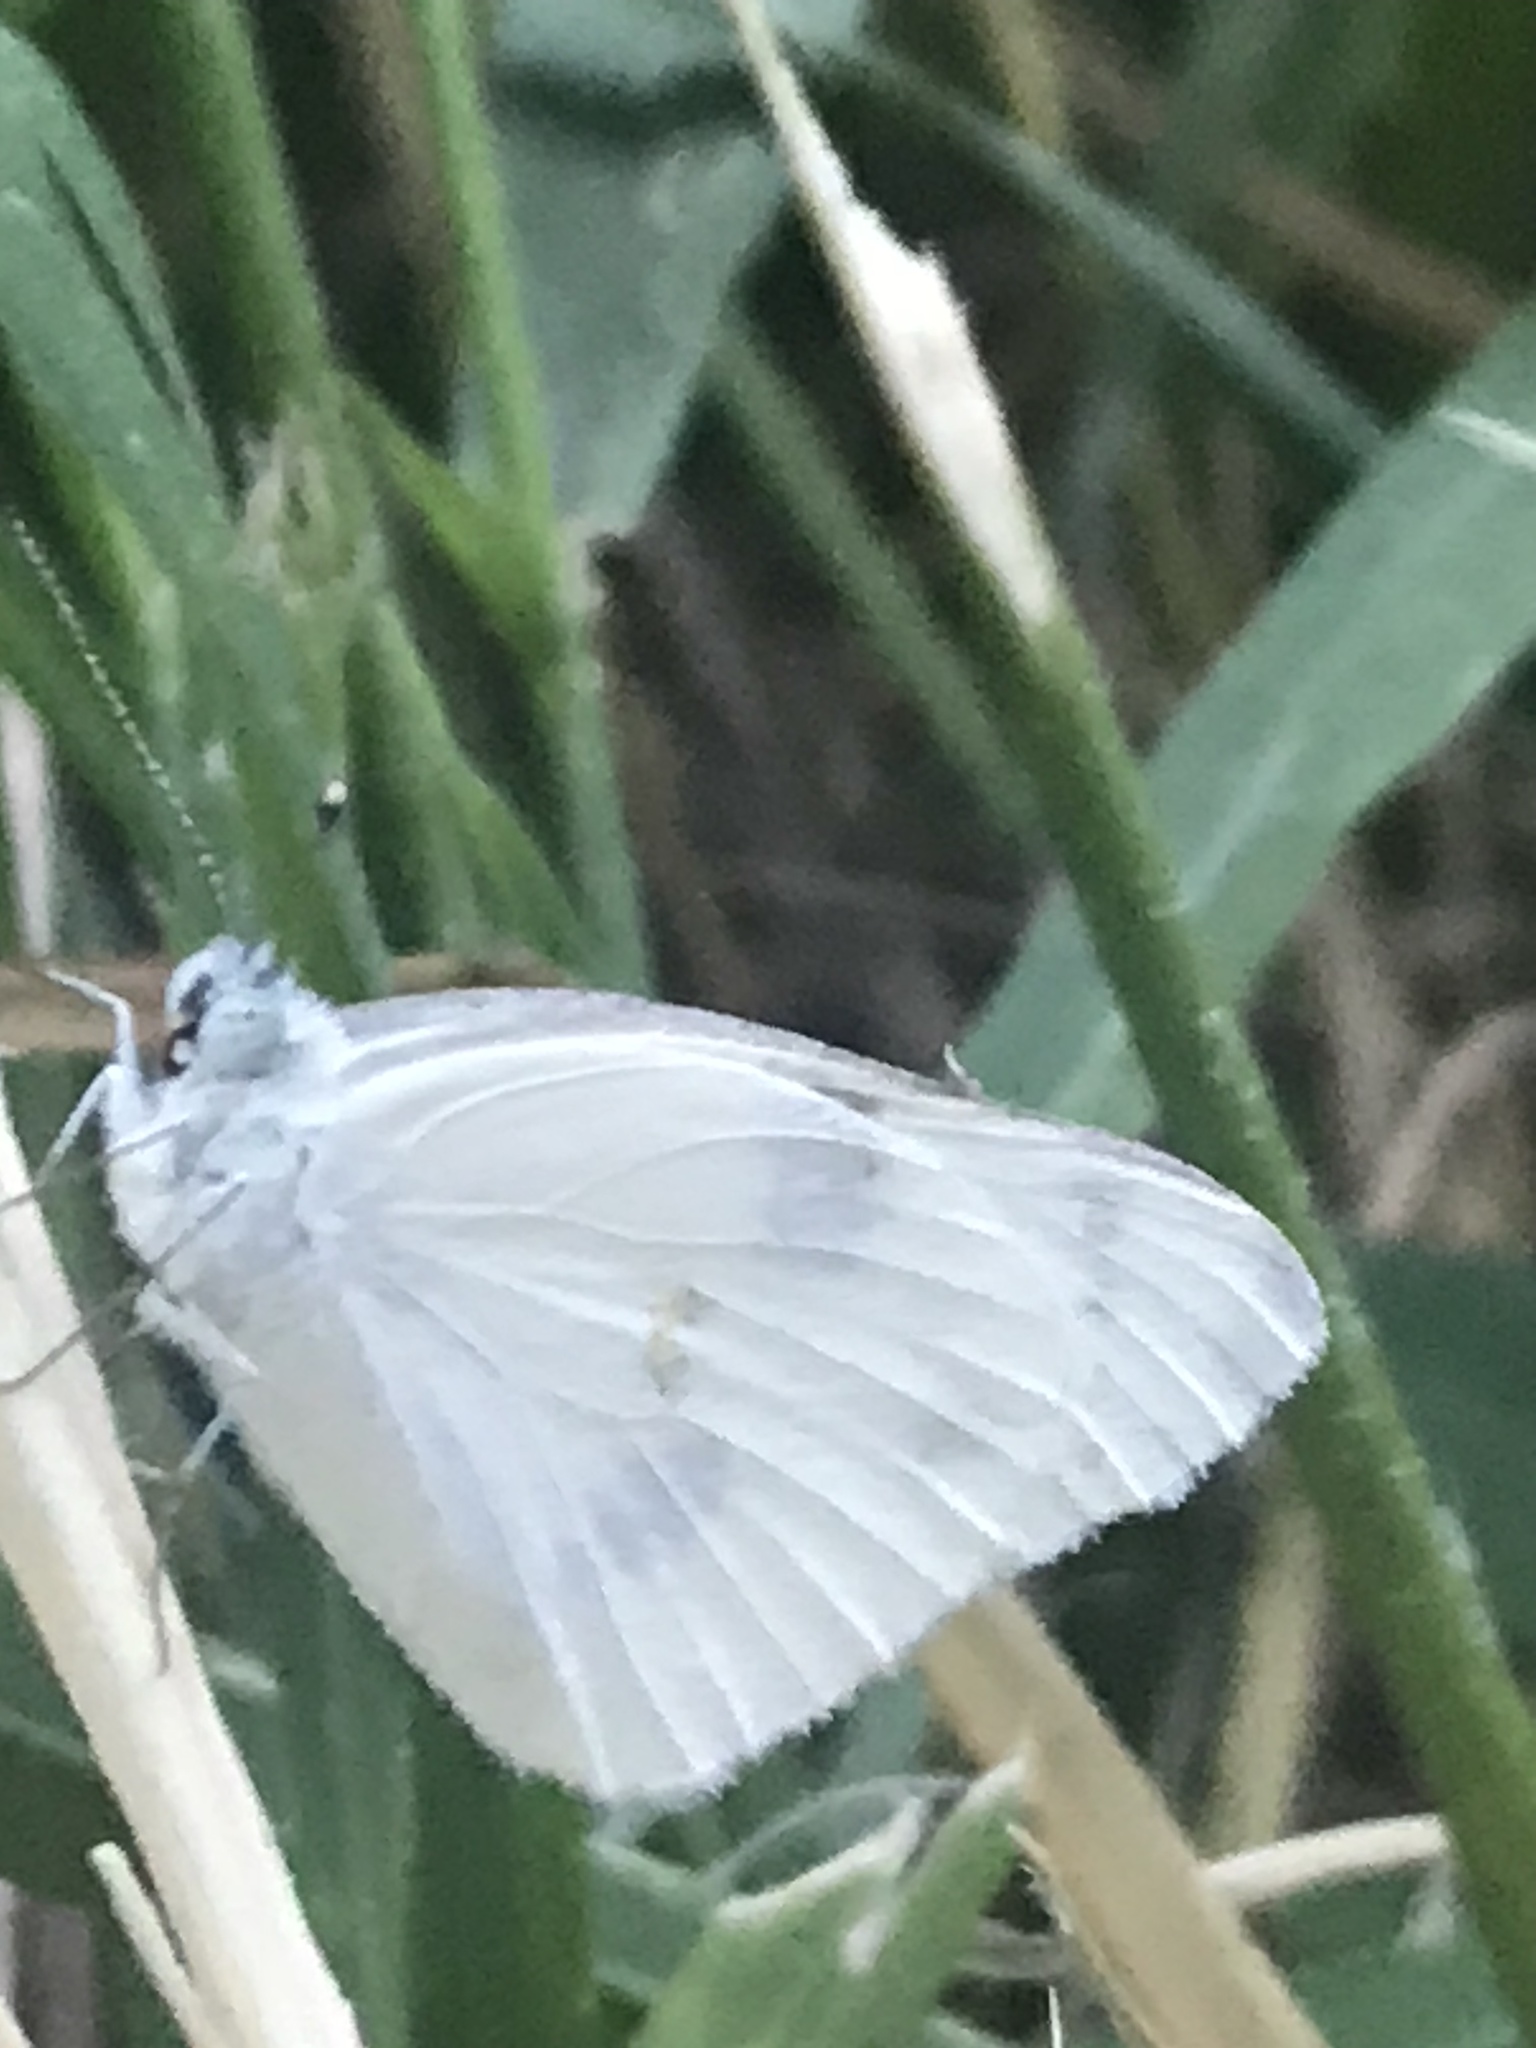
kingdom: Animalia
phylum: Arthropoda
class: Insecta
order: Lepidoptera
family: Pieridae
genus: Pontia
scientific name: Pontia protodice
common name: Checkered white
